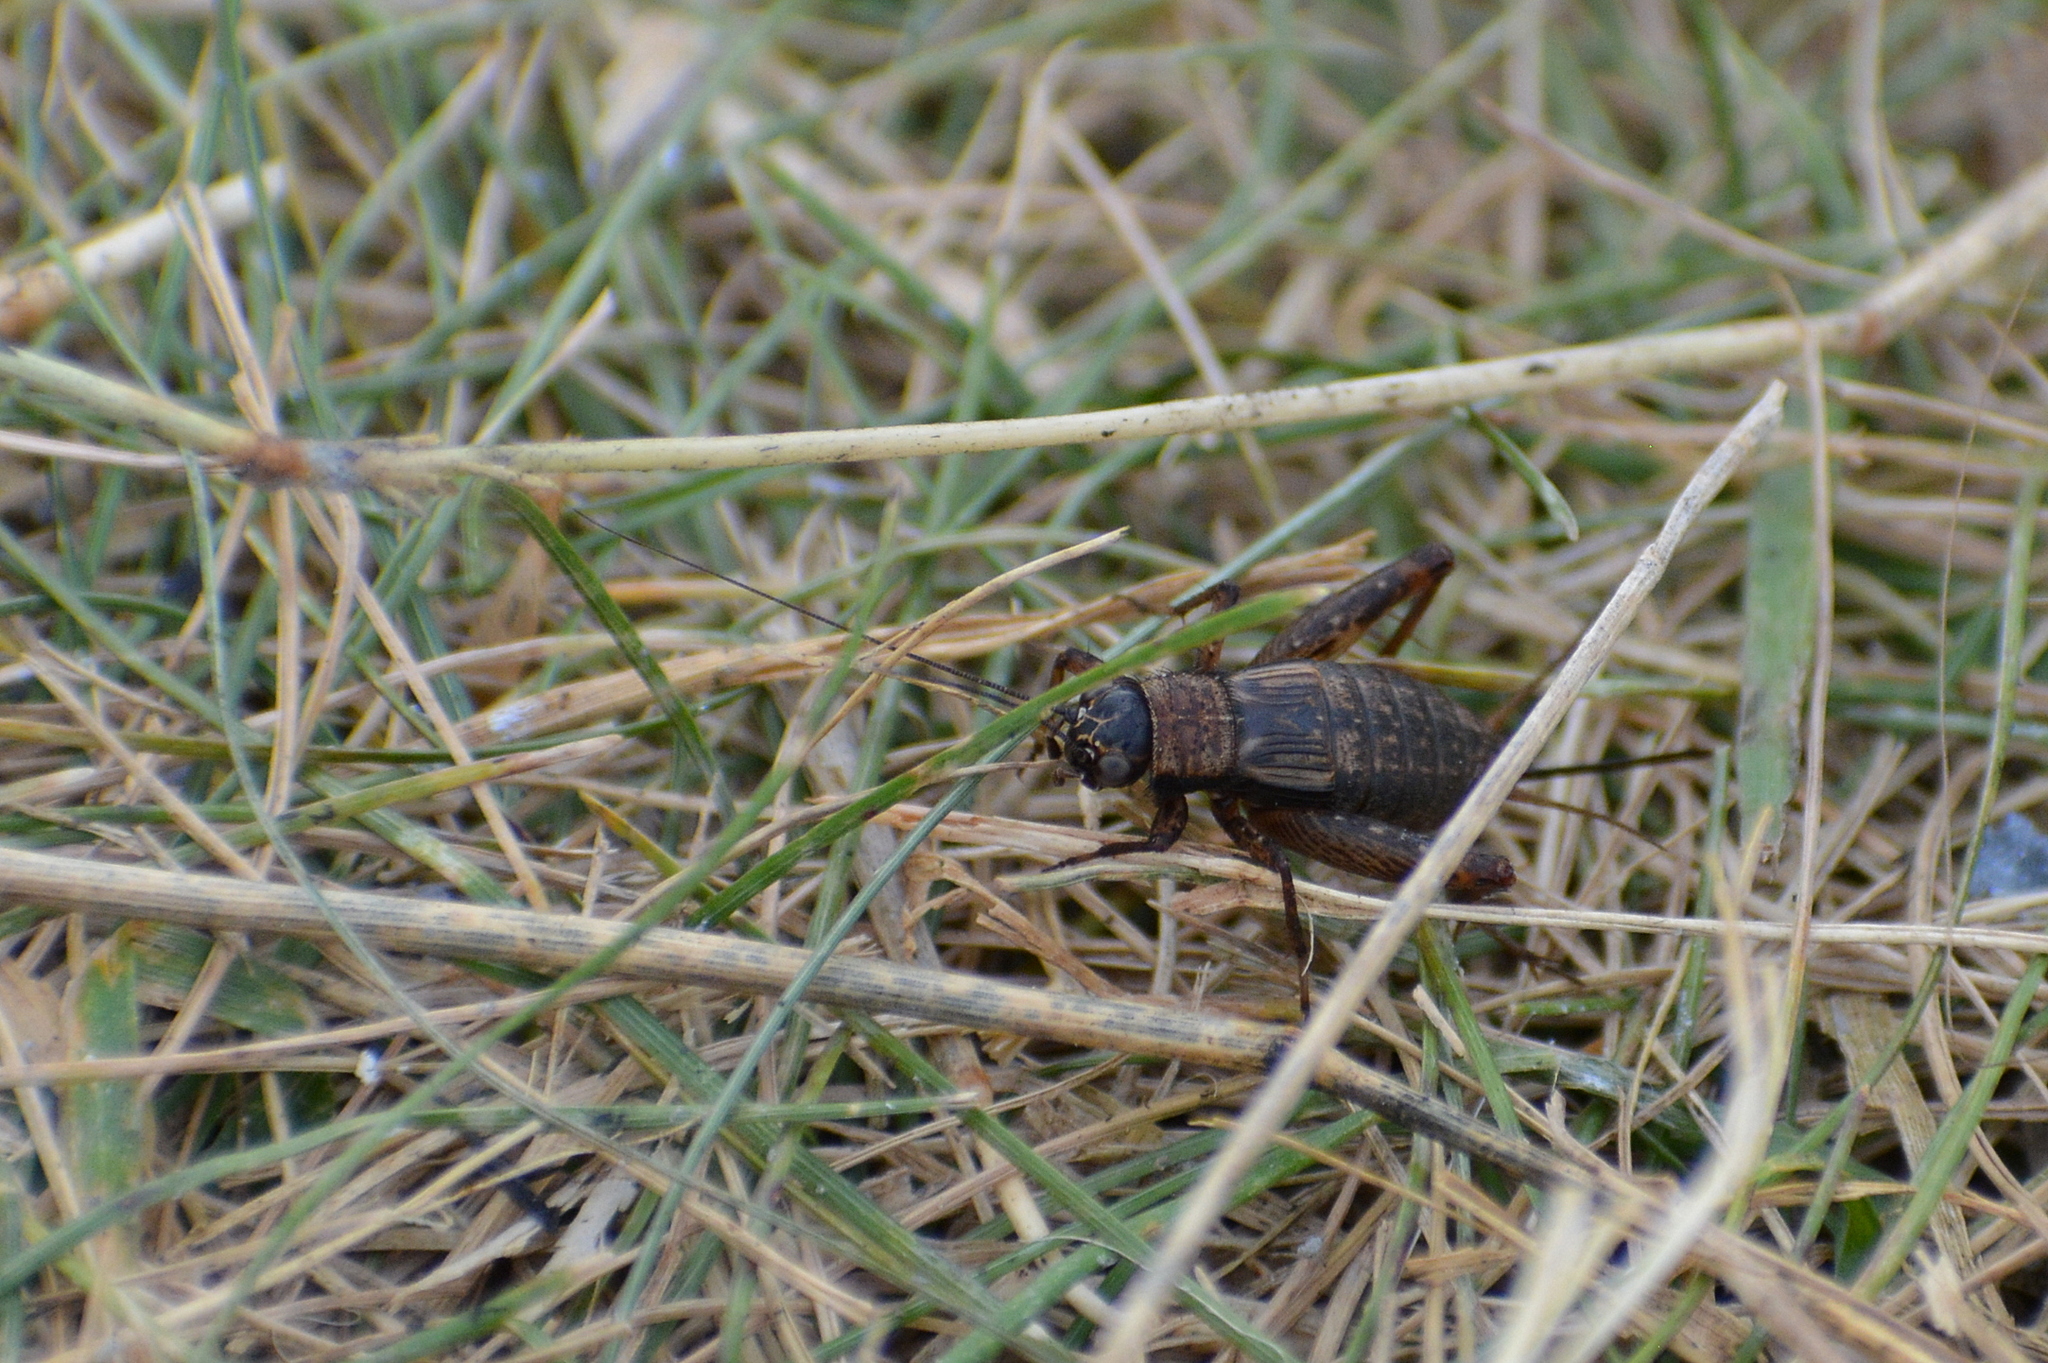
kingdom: Animalia
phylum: Arthropoda
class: Insecta
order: Orthoptera
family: Trigonidiidae
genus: Nemobius
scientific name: Nemobius sylvestris
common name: Wood-cricket
